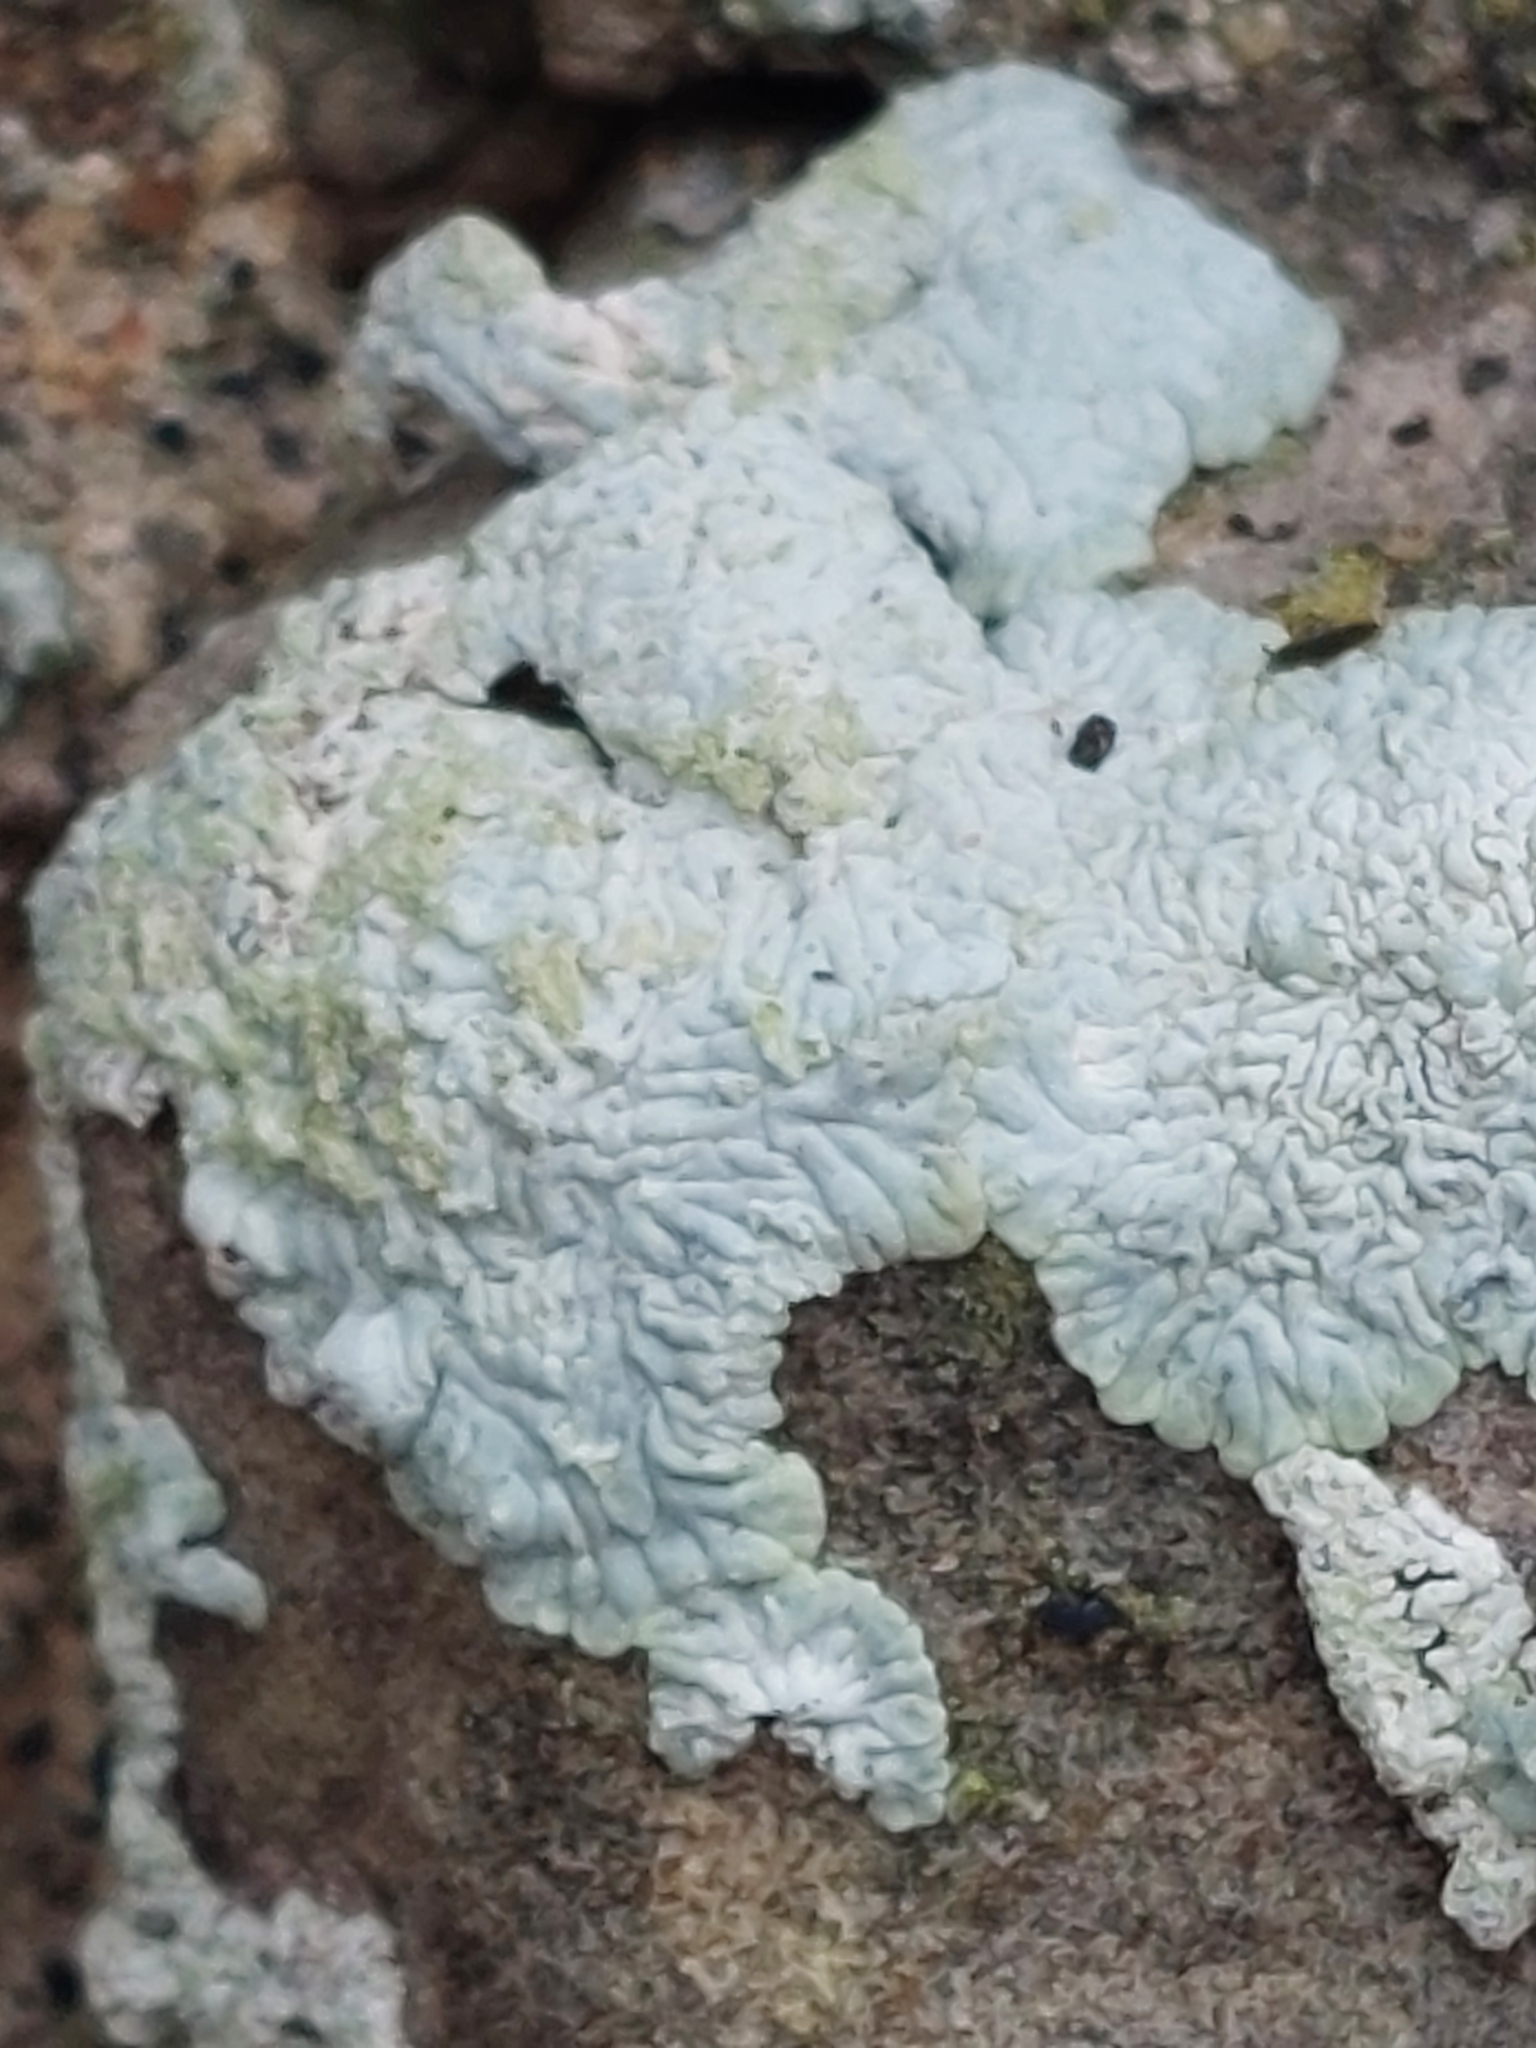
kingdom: Fungi
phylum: Ascomycota
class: Lecanoromycetes
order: Caliciales
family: Caliciaceae
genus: Diploicia
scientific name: Diploicia canescens
